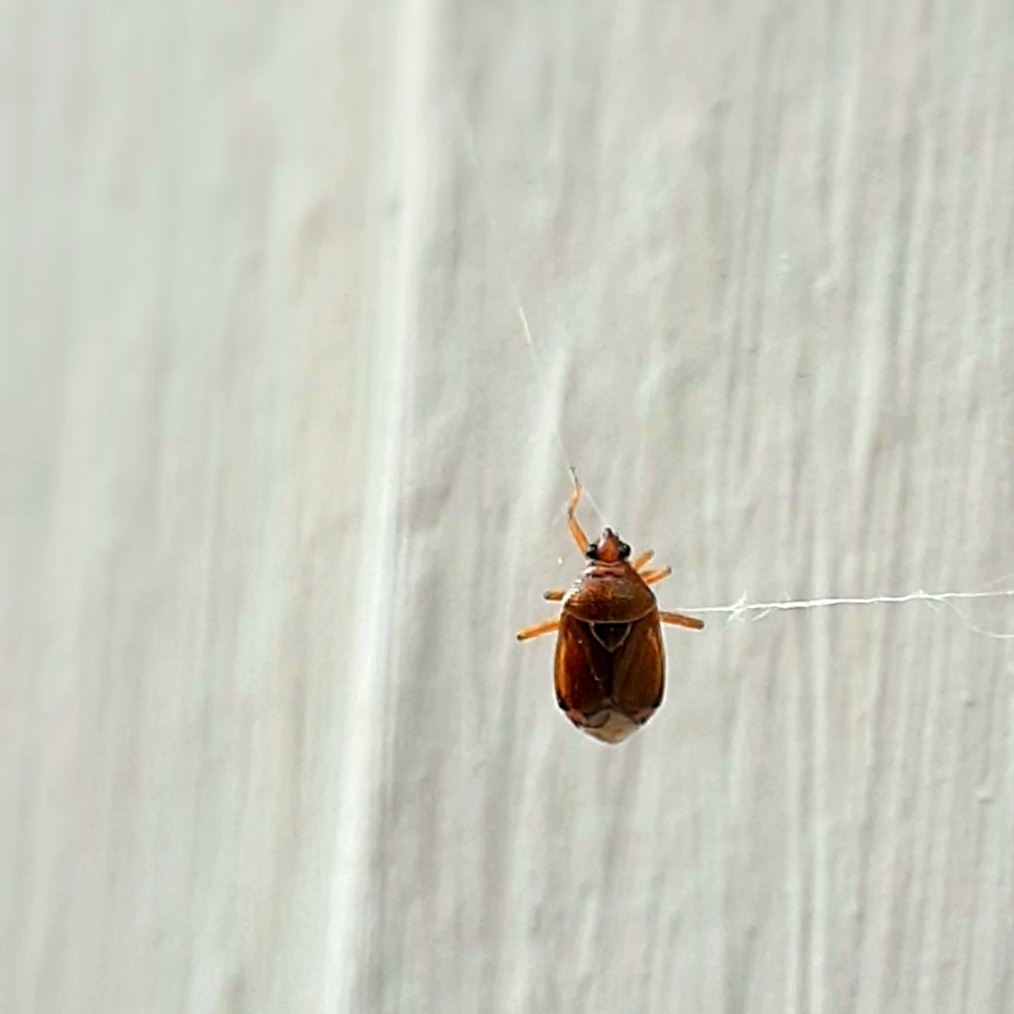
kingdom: Animalia
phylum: Arthropoda
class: Insecta
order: Hemiptera
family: Miridae
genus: Deraeocoris
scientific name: Deraeocoris flavilinea
